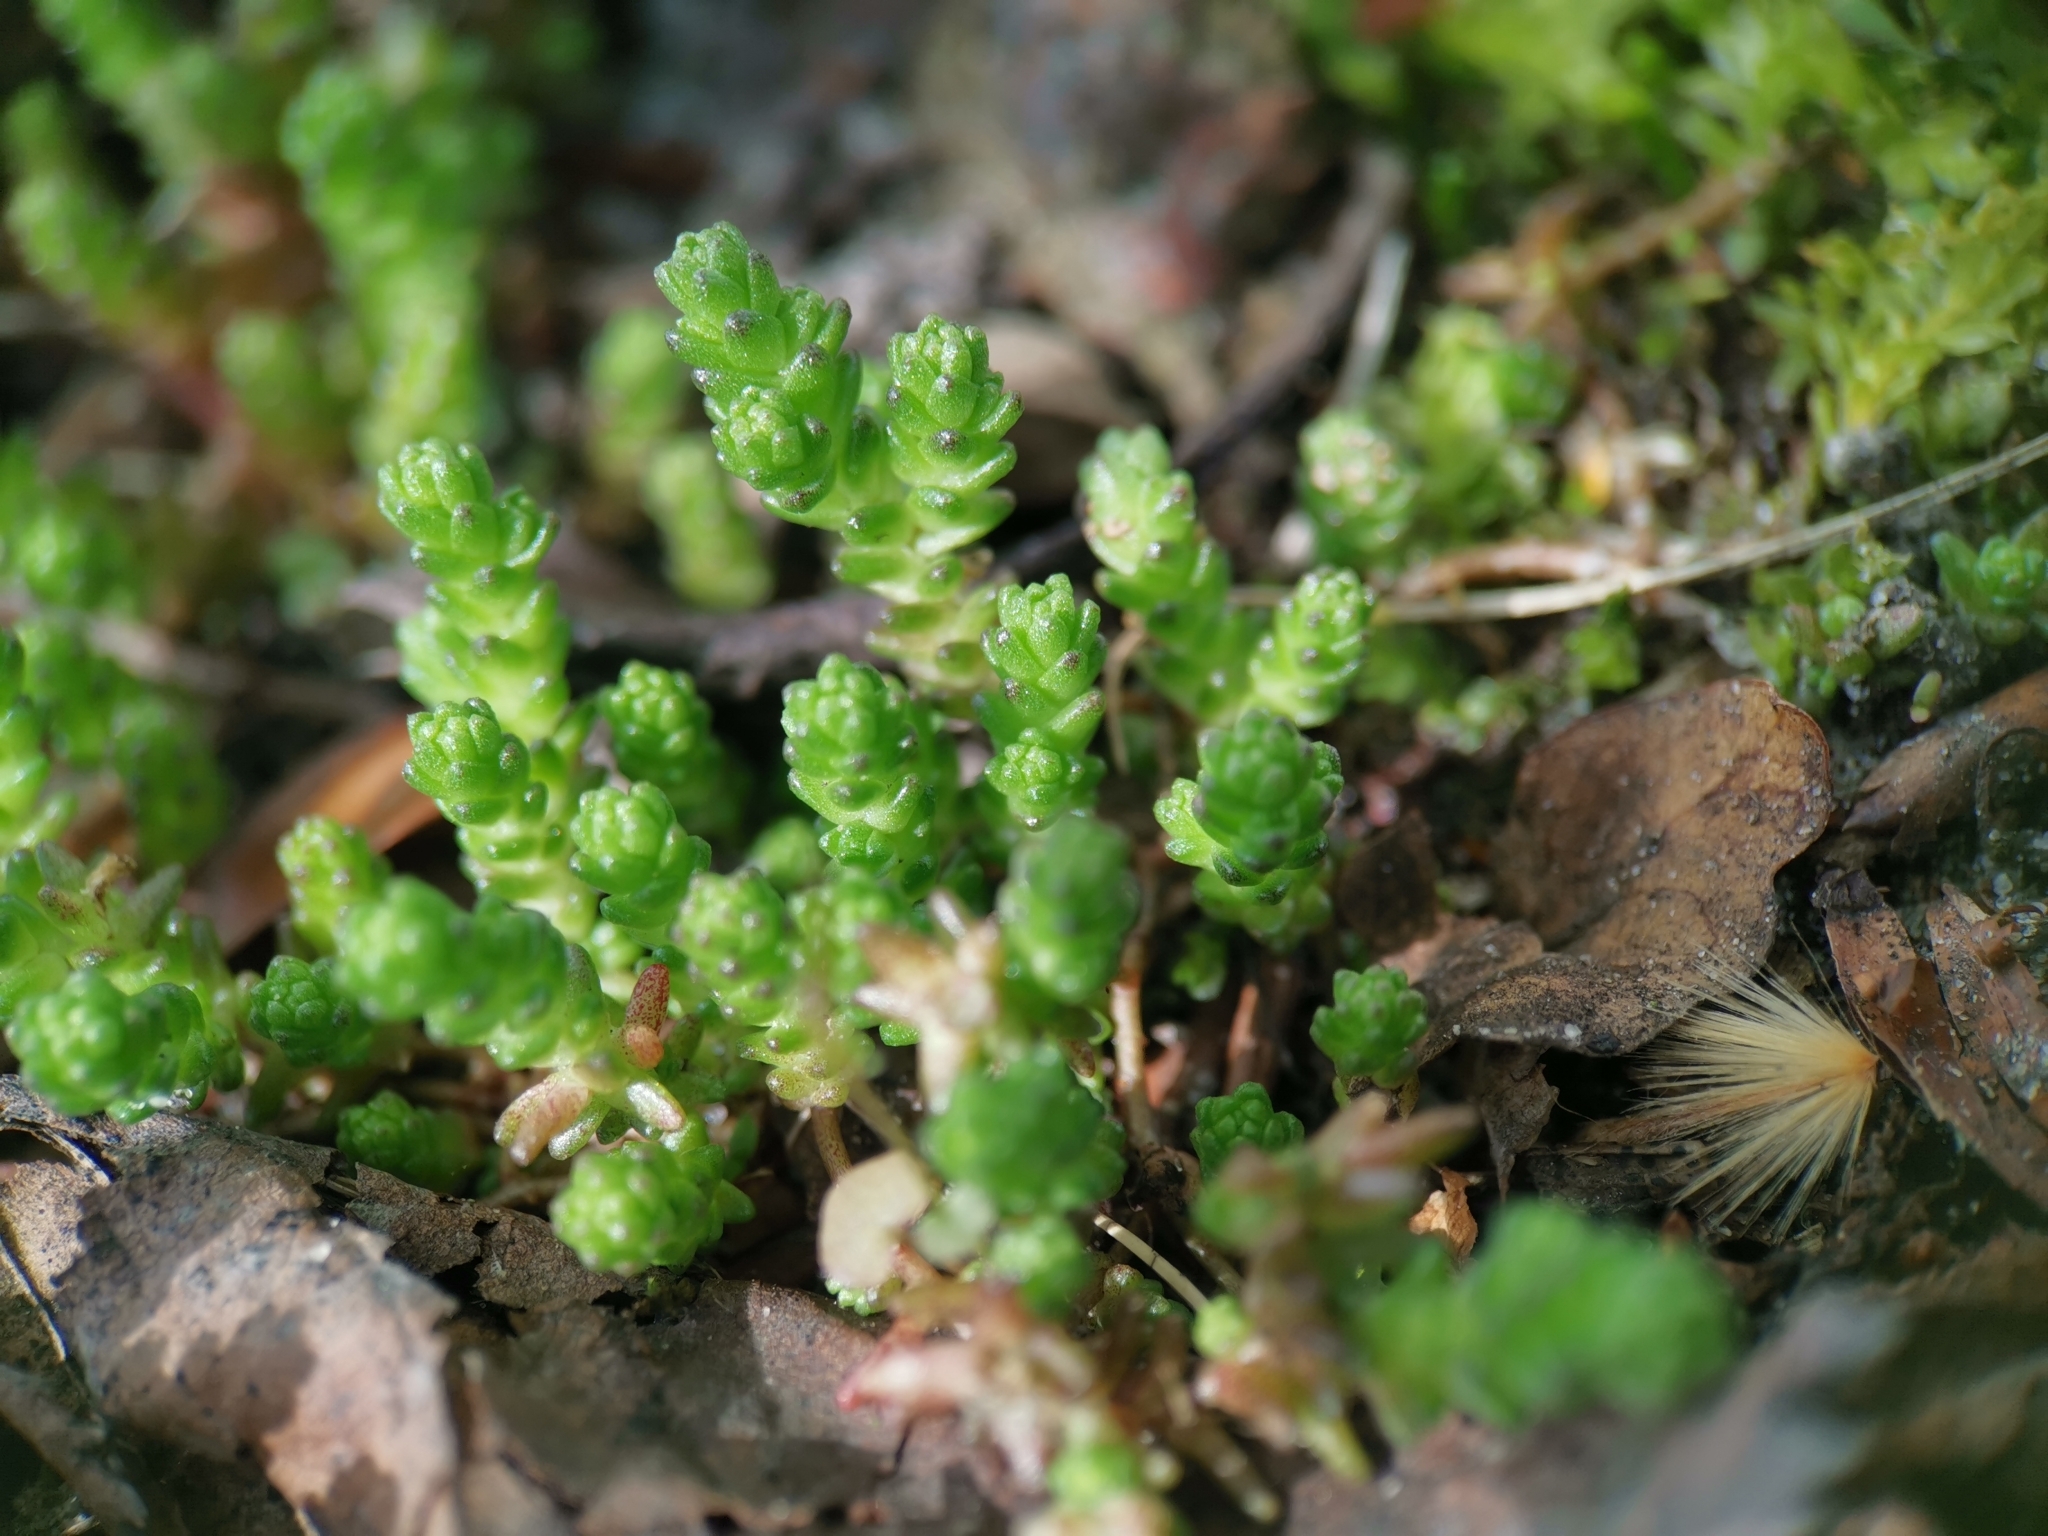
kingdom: Plantae
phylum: Tracheophyta
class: Magnoliopsida
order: Saxifragales
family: Crassulaceae
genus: Sedum
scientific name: Sedum acre
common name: Biting stonecrop
